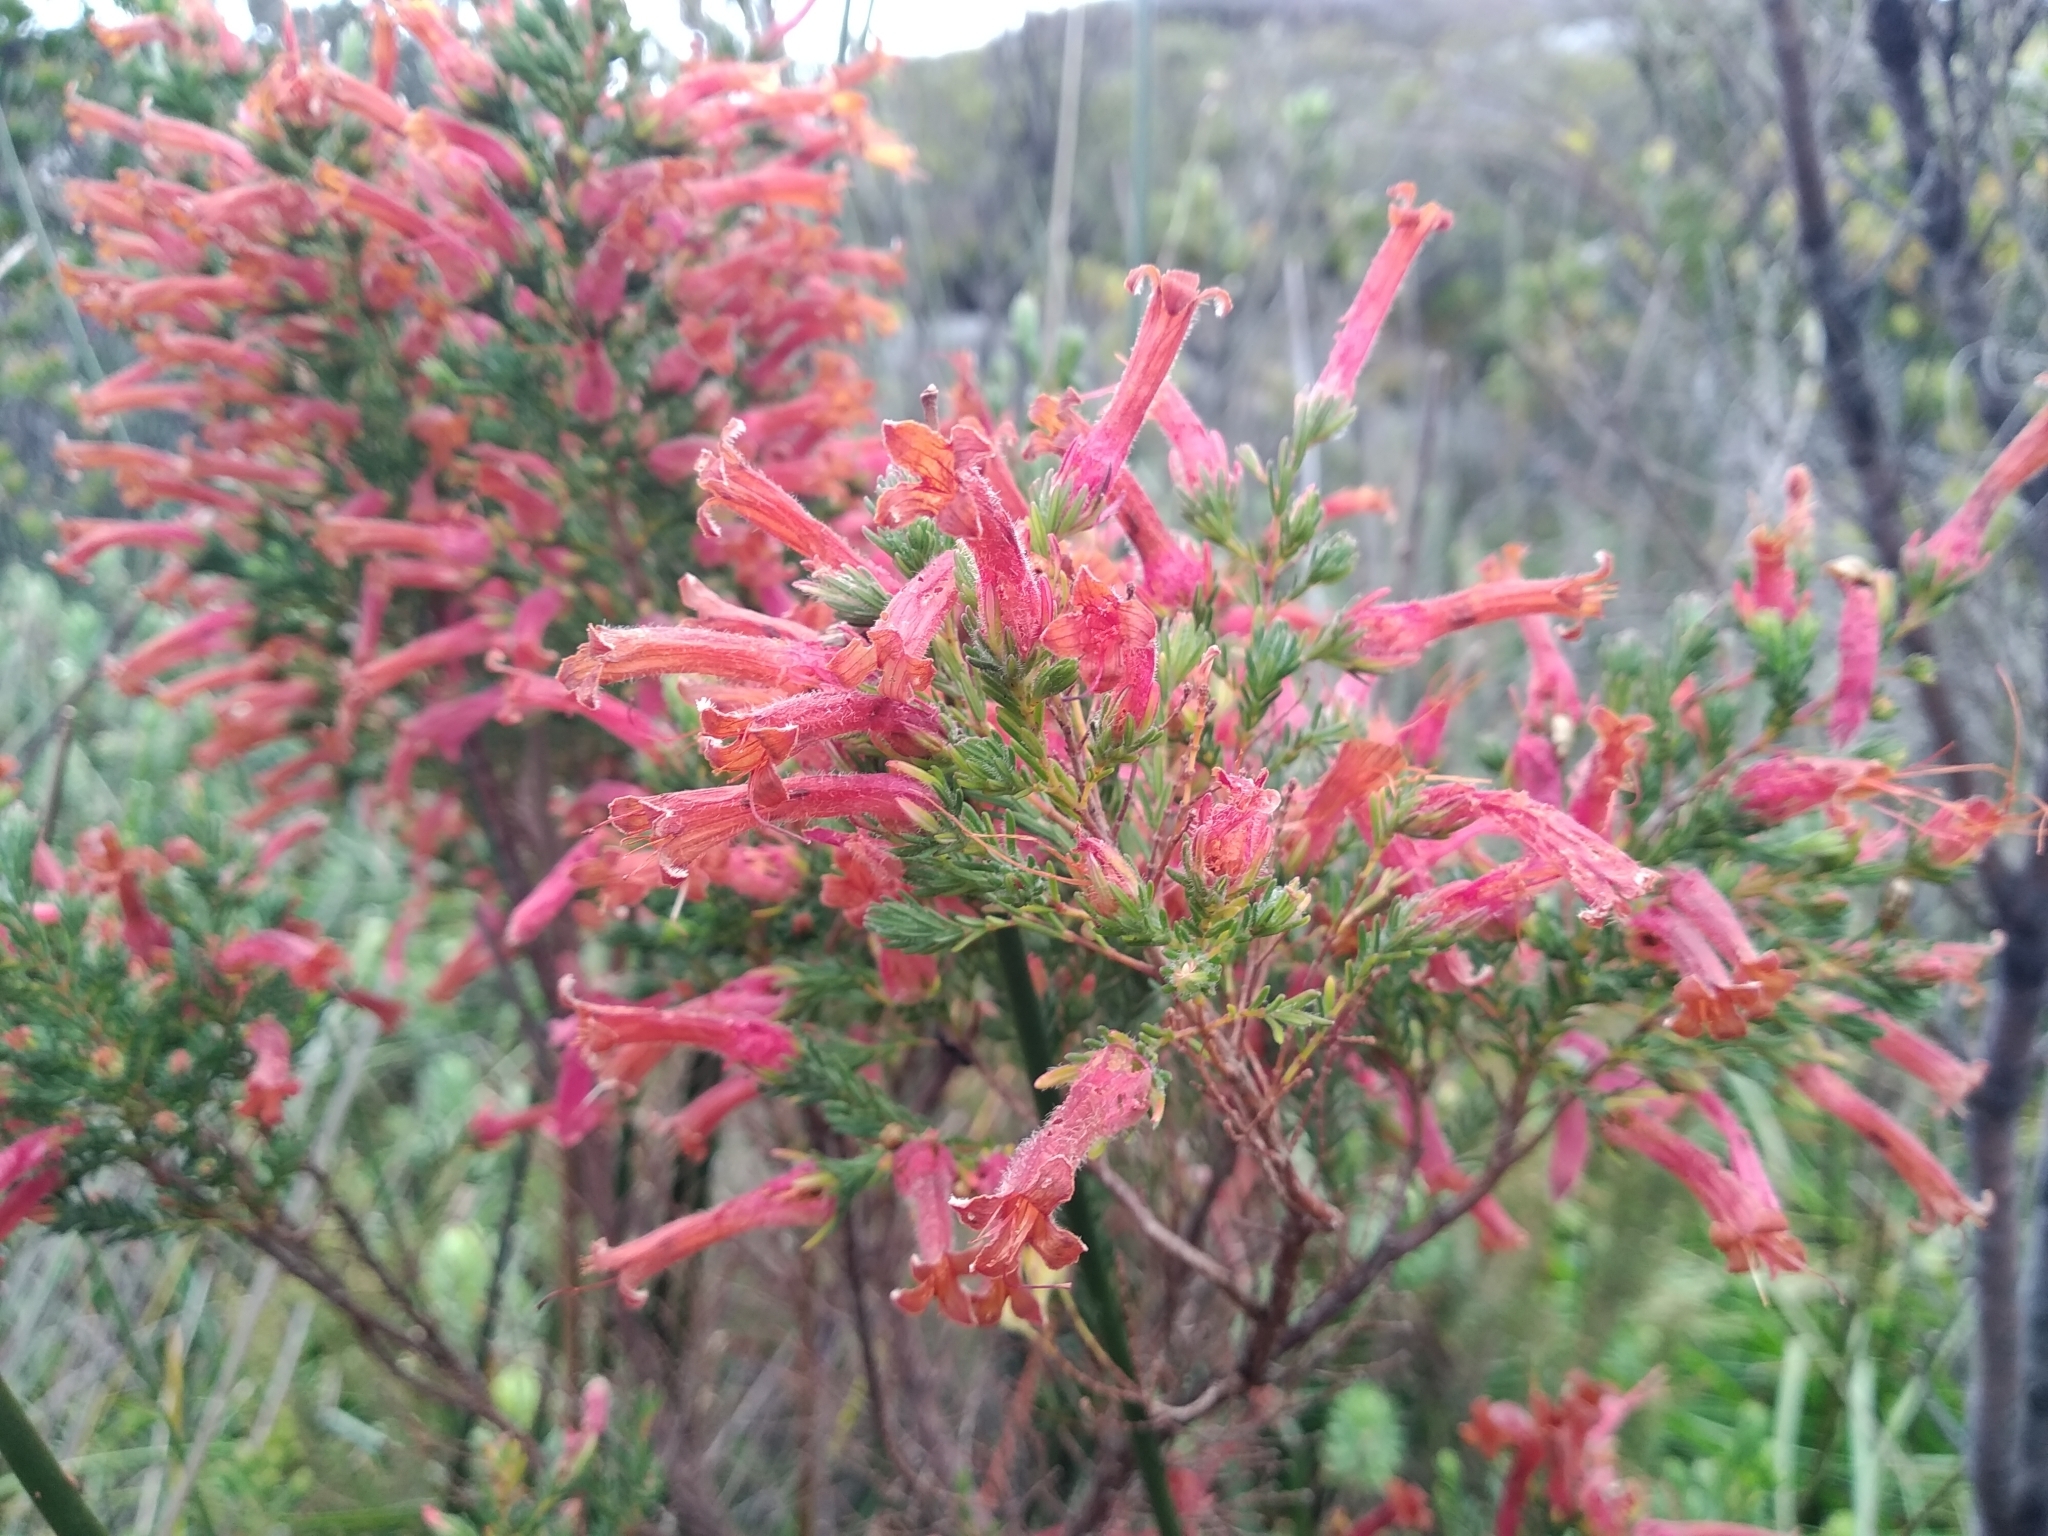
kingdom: Plantae
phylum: Tracheophyta
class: Magnoliopsida
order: Ericales
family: Ericaceae
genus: Erica
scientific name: Erica curviflora
